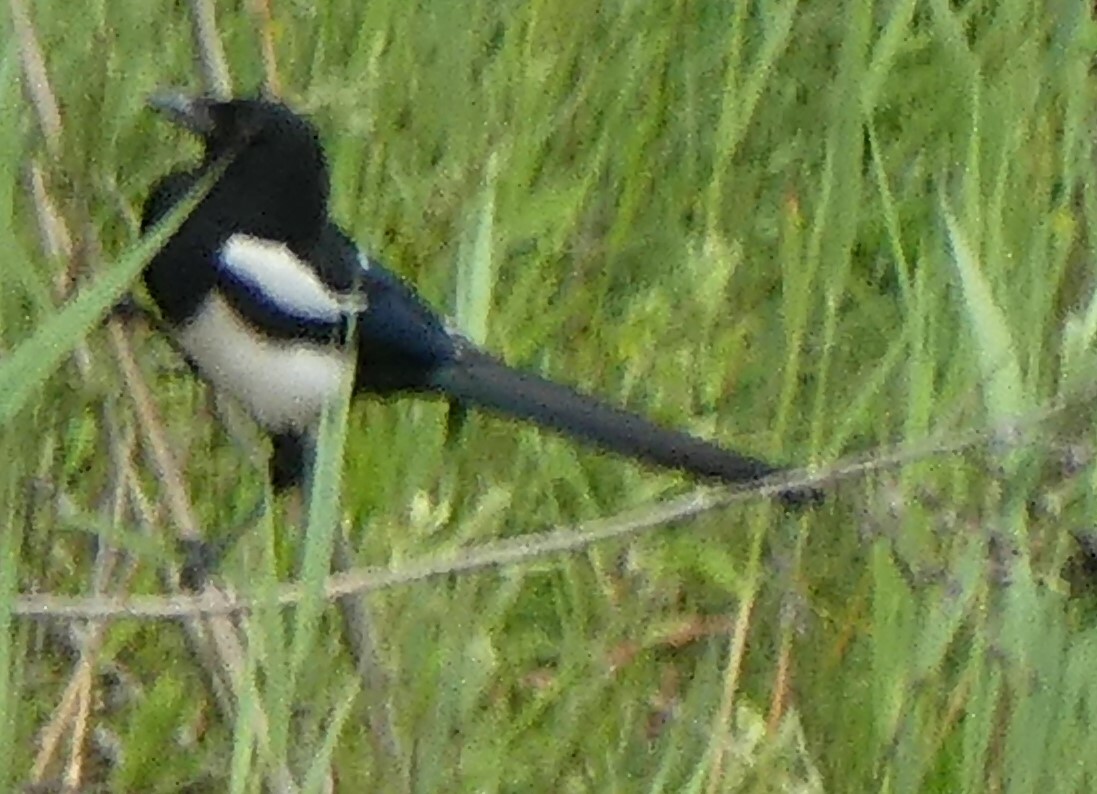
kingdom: Animalia
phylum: Chordata
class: Aves
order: Passeriformes
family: Corvidae
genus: Pica
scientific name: Pica pica
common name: Eurasian magpie
